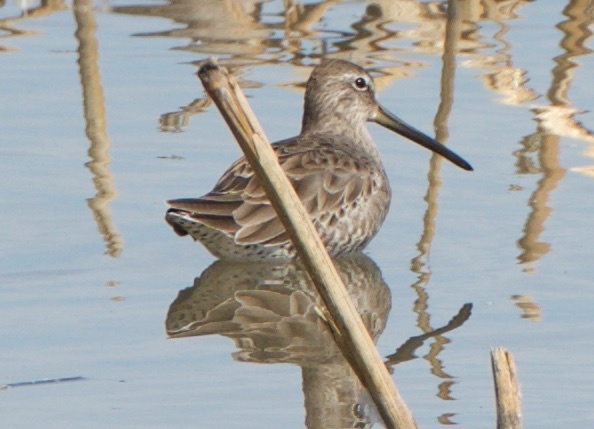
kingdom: Animalia
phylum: Chordata
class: Aves
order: Charadriiformes
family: Scolopacidae
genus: Limnodromus
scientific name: Limnodromus scolopaceus
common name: Long-billed dowitcher
